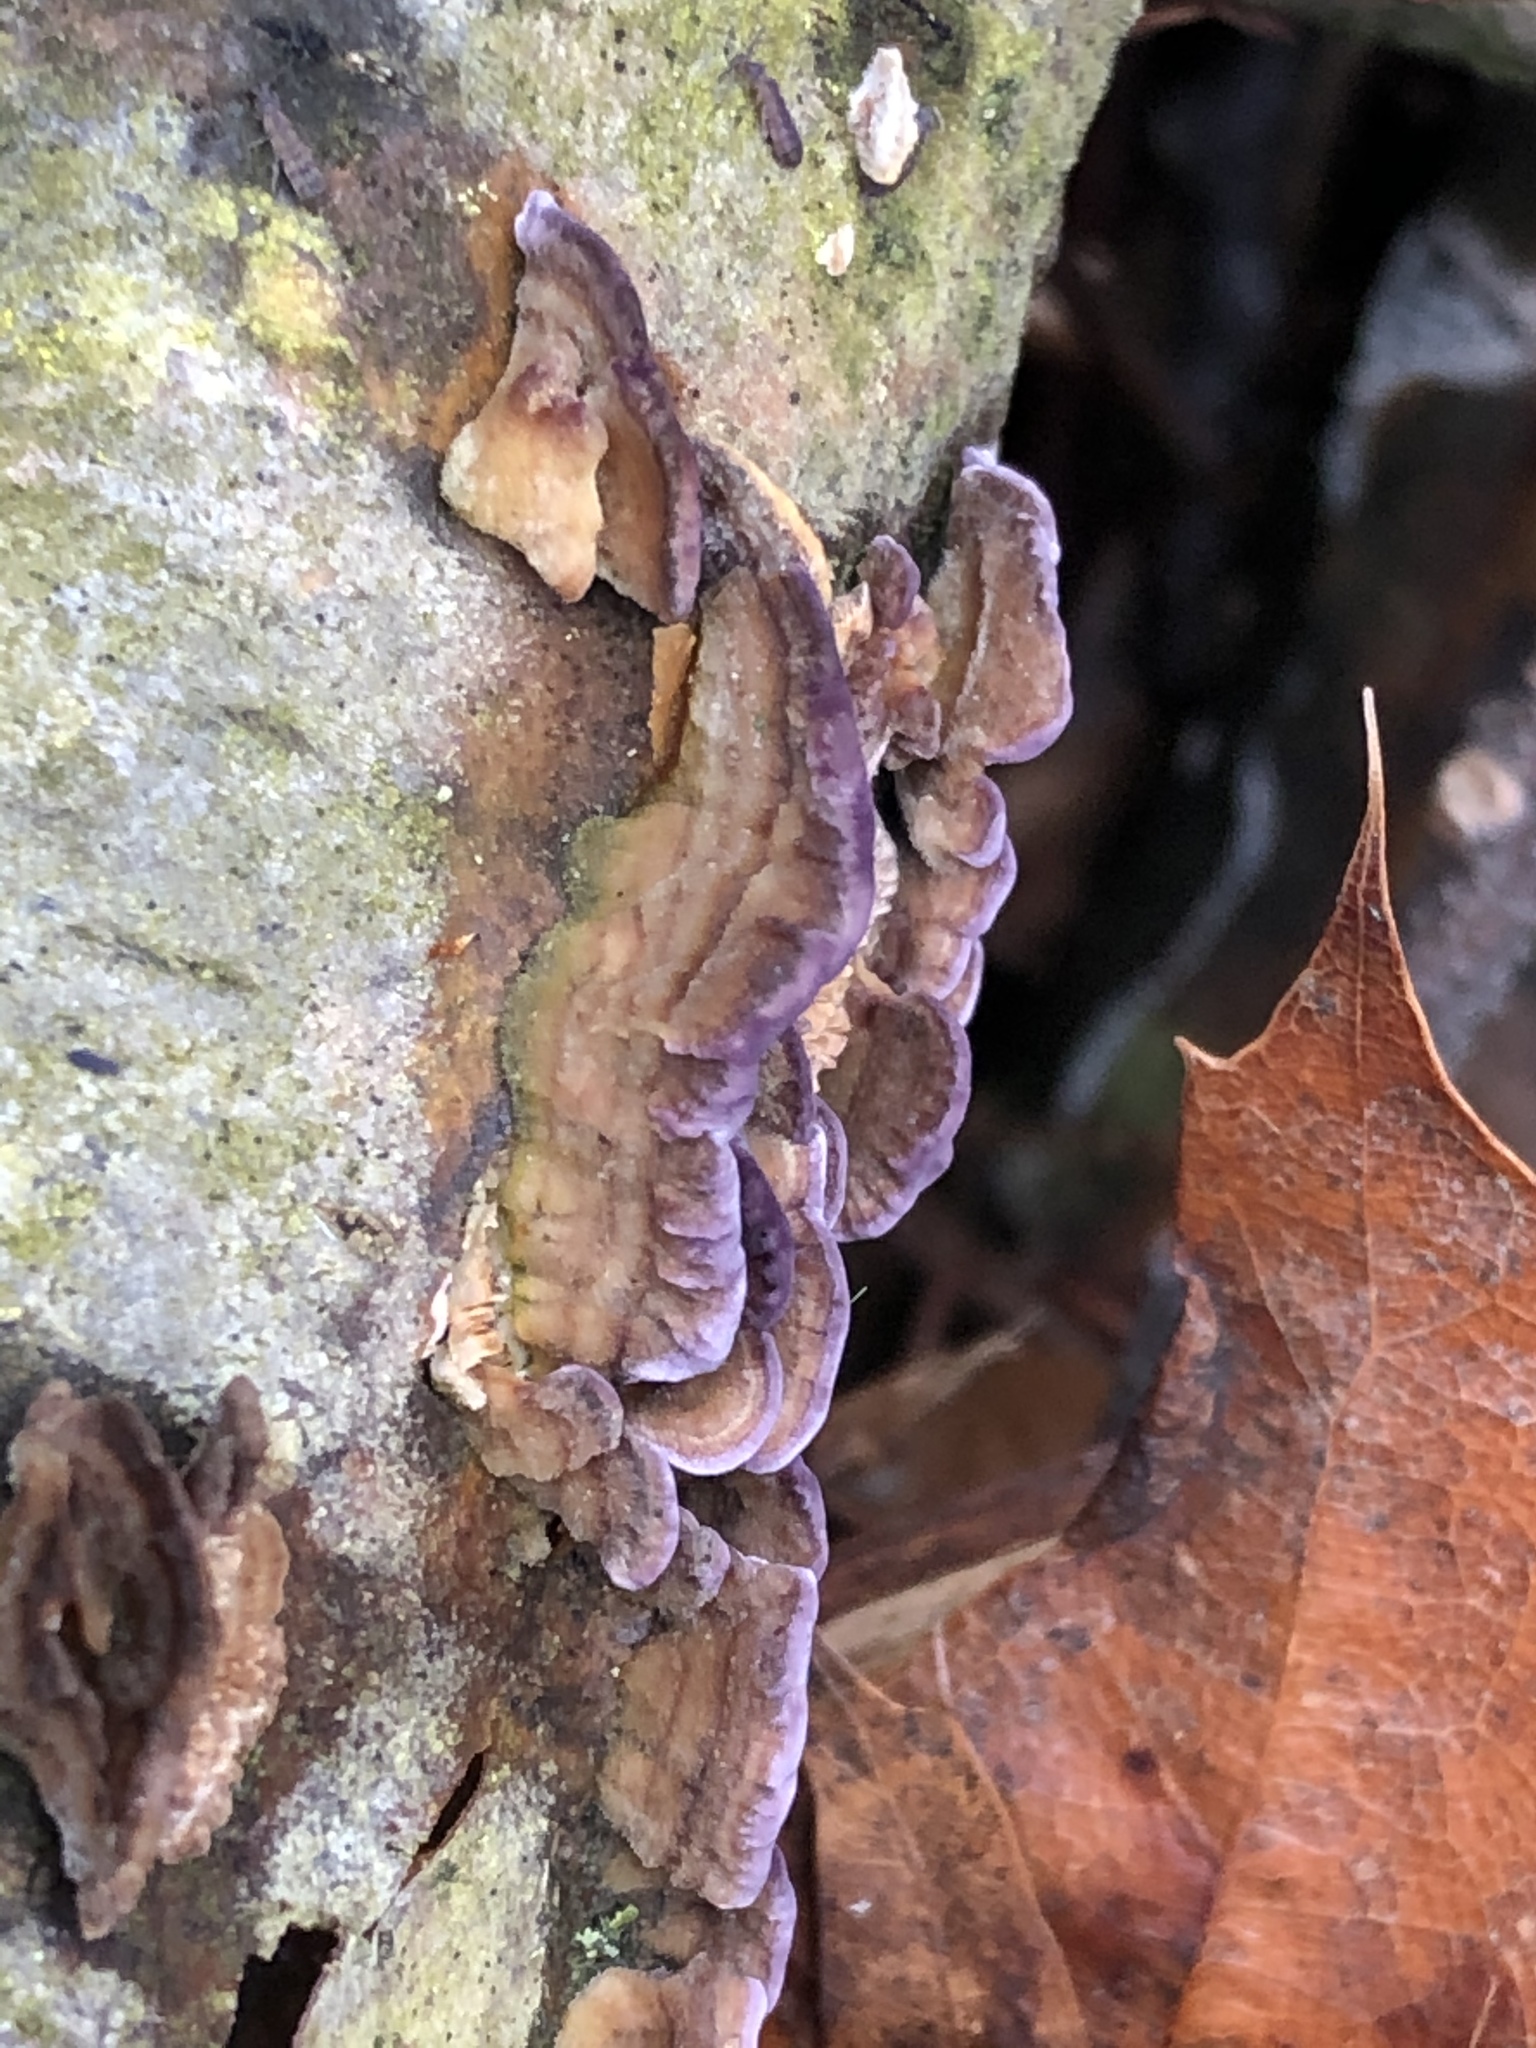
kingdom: Fungi
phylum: Basidiomycota
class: Agaricomycetes
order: Hymenochaetales
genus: Trichaptum
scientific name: Trichaptum biforme
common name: Violet-toothed polypore
